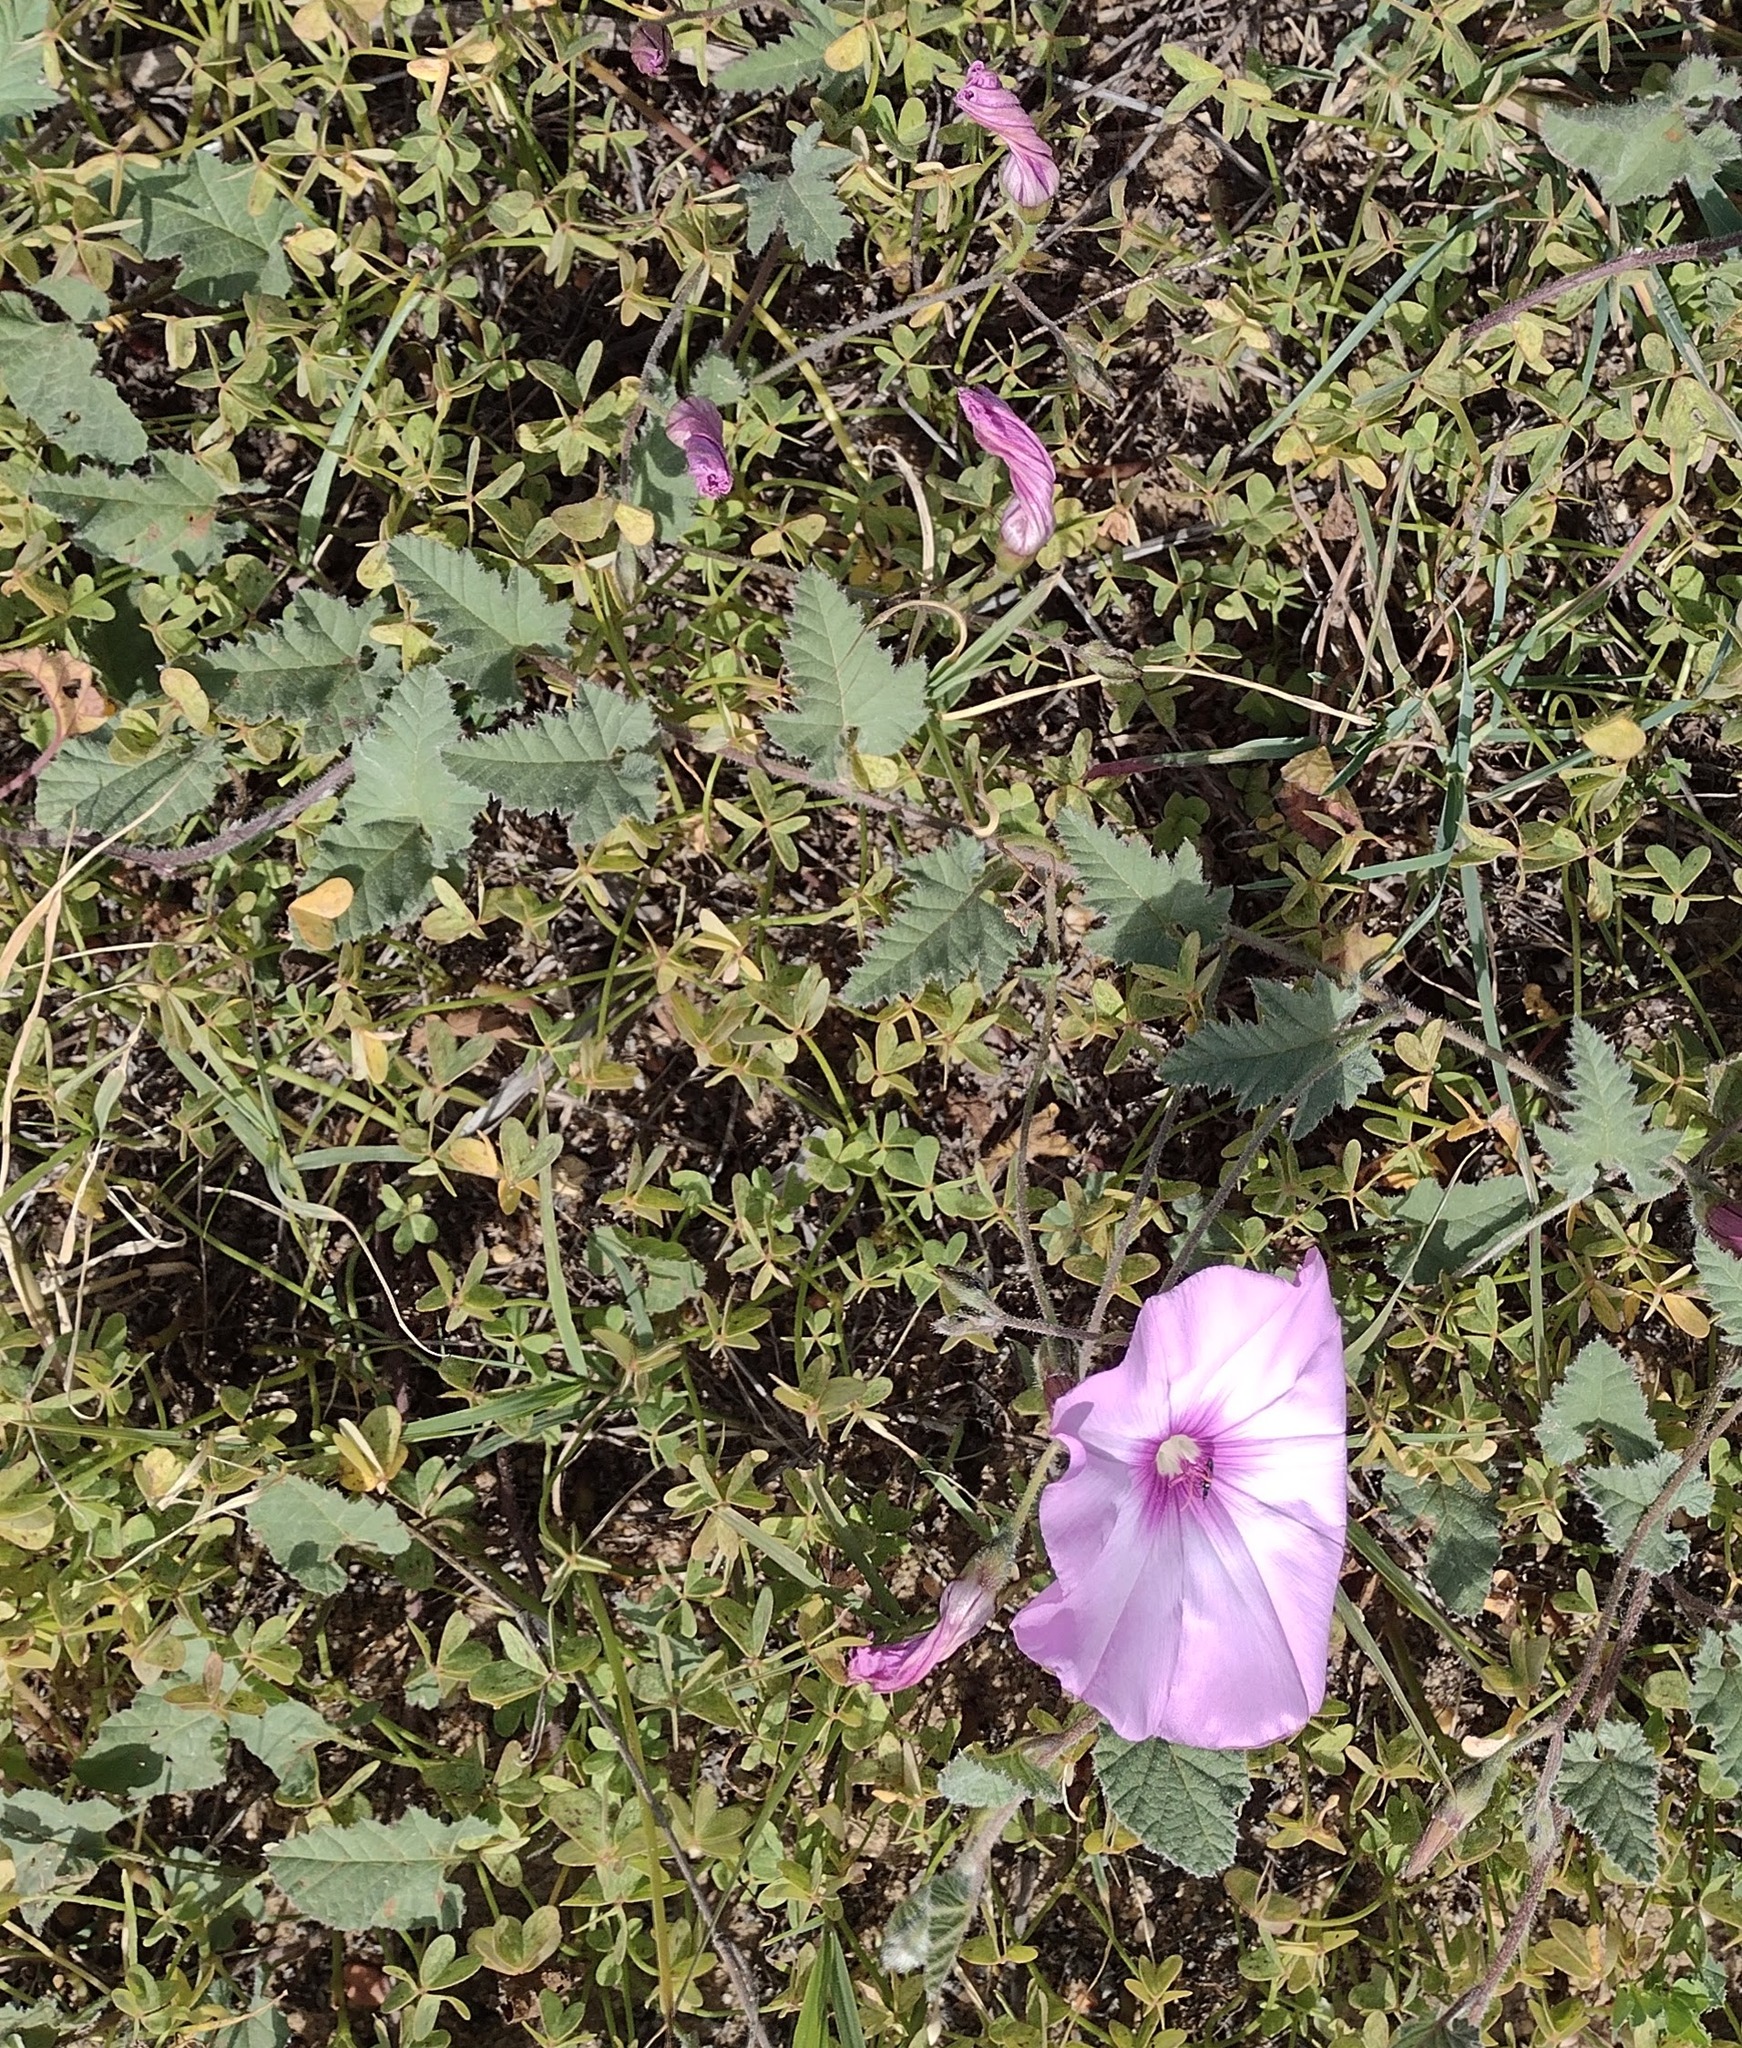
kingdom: Plantae
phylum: Tracheophyta
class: Magnoliopsida
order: Solanales
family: Convolvulaceae
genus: Convolvulus
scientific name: Convolvulus althaeoides
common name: Mallow bindweed
